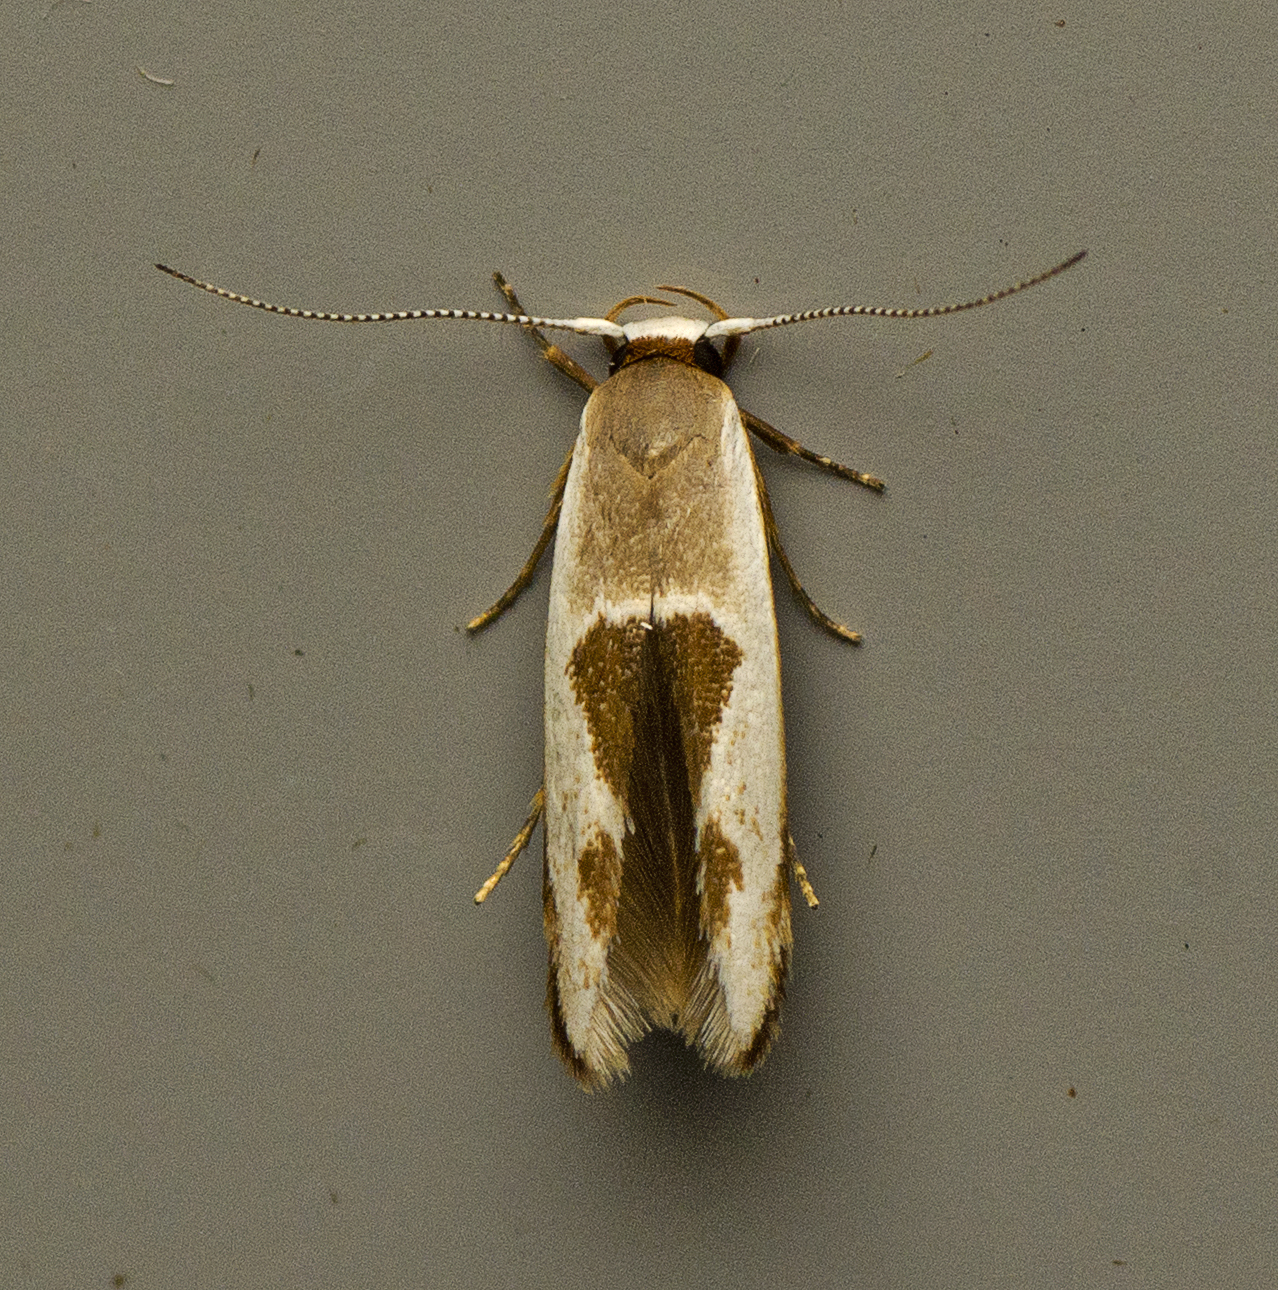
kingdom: Animalia
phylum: Arthropoda
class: Insecta
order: Lepidoptera
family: Stathmopodidae
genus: Stathmopoda
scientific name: Stathmopoda megathyma
